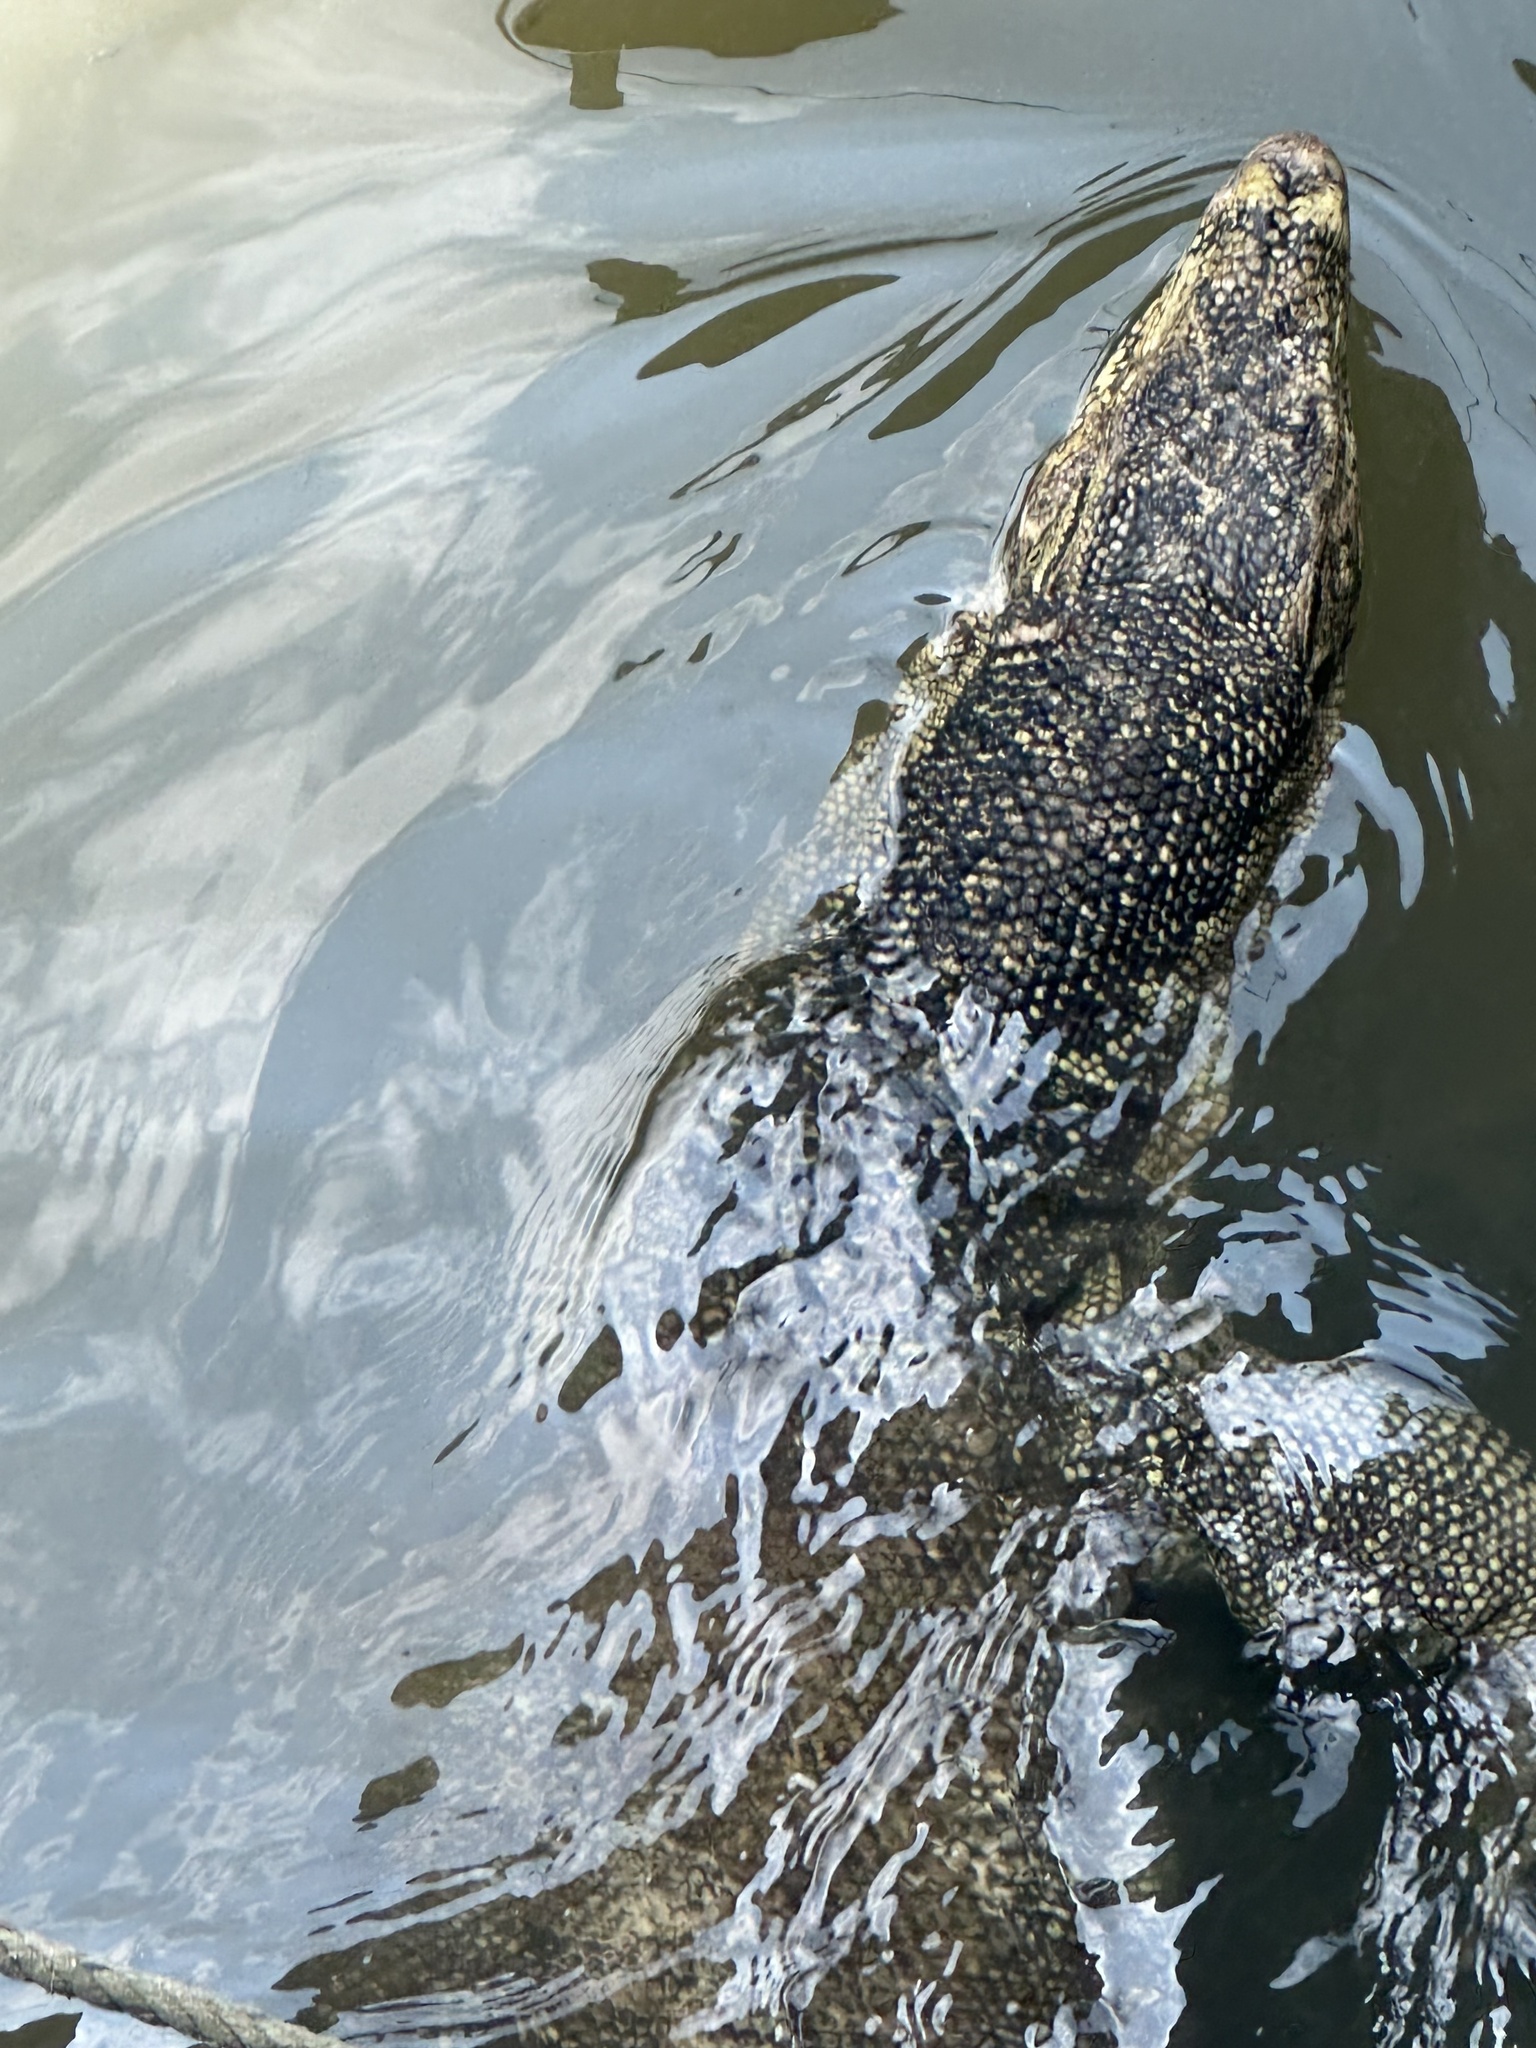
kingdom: Animalia
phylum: Chordata
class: Squamata
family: Varanidae
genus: Varanus
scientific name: Varanus salvator
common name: Common water monitor
